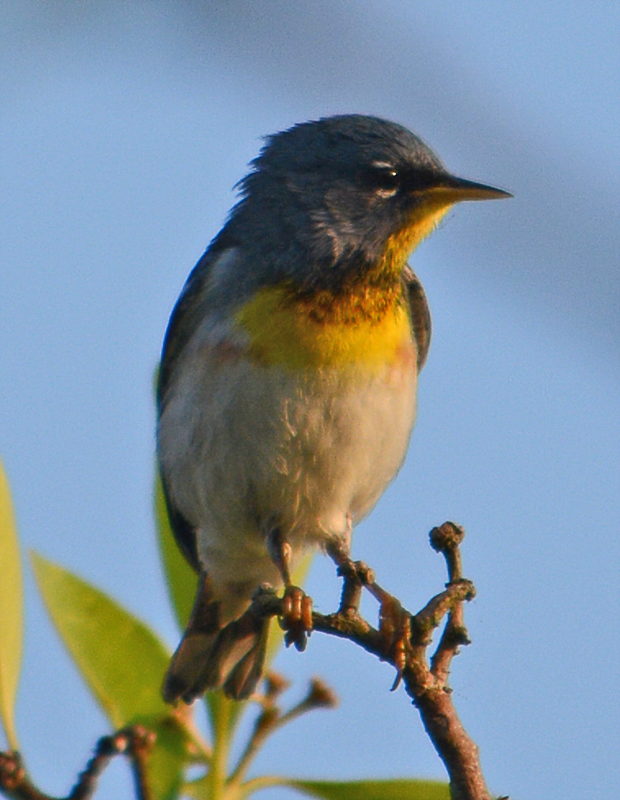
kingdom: Animalia
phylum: Chordata
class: Aves
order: Passeriformes
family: Parulidae
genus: Setophaga
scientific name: Setophaga americana
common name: Northern parula
